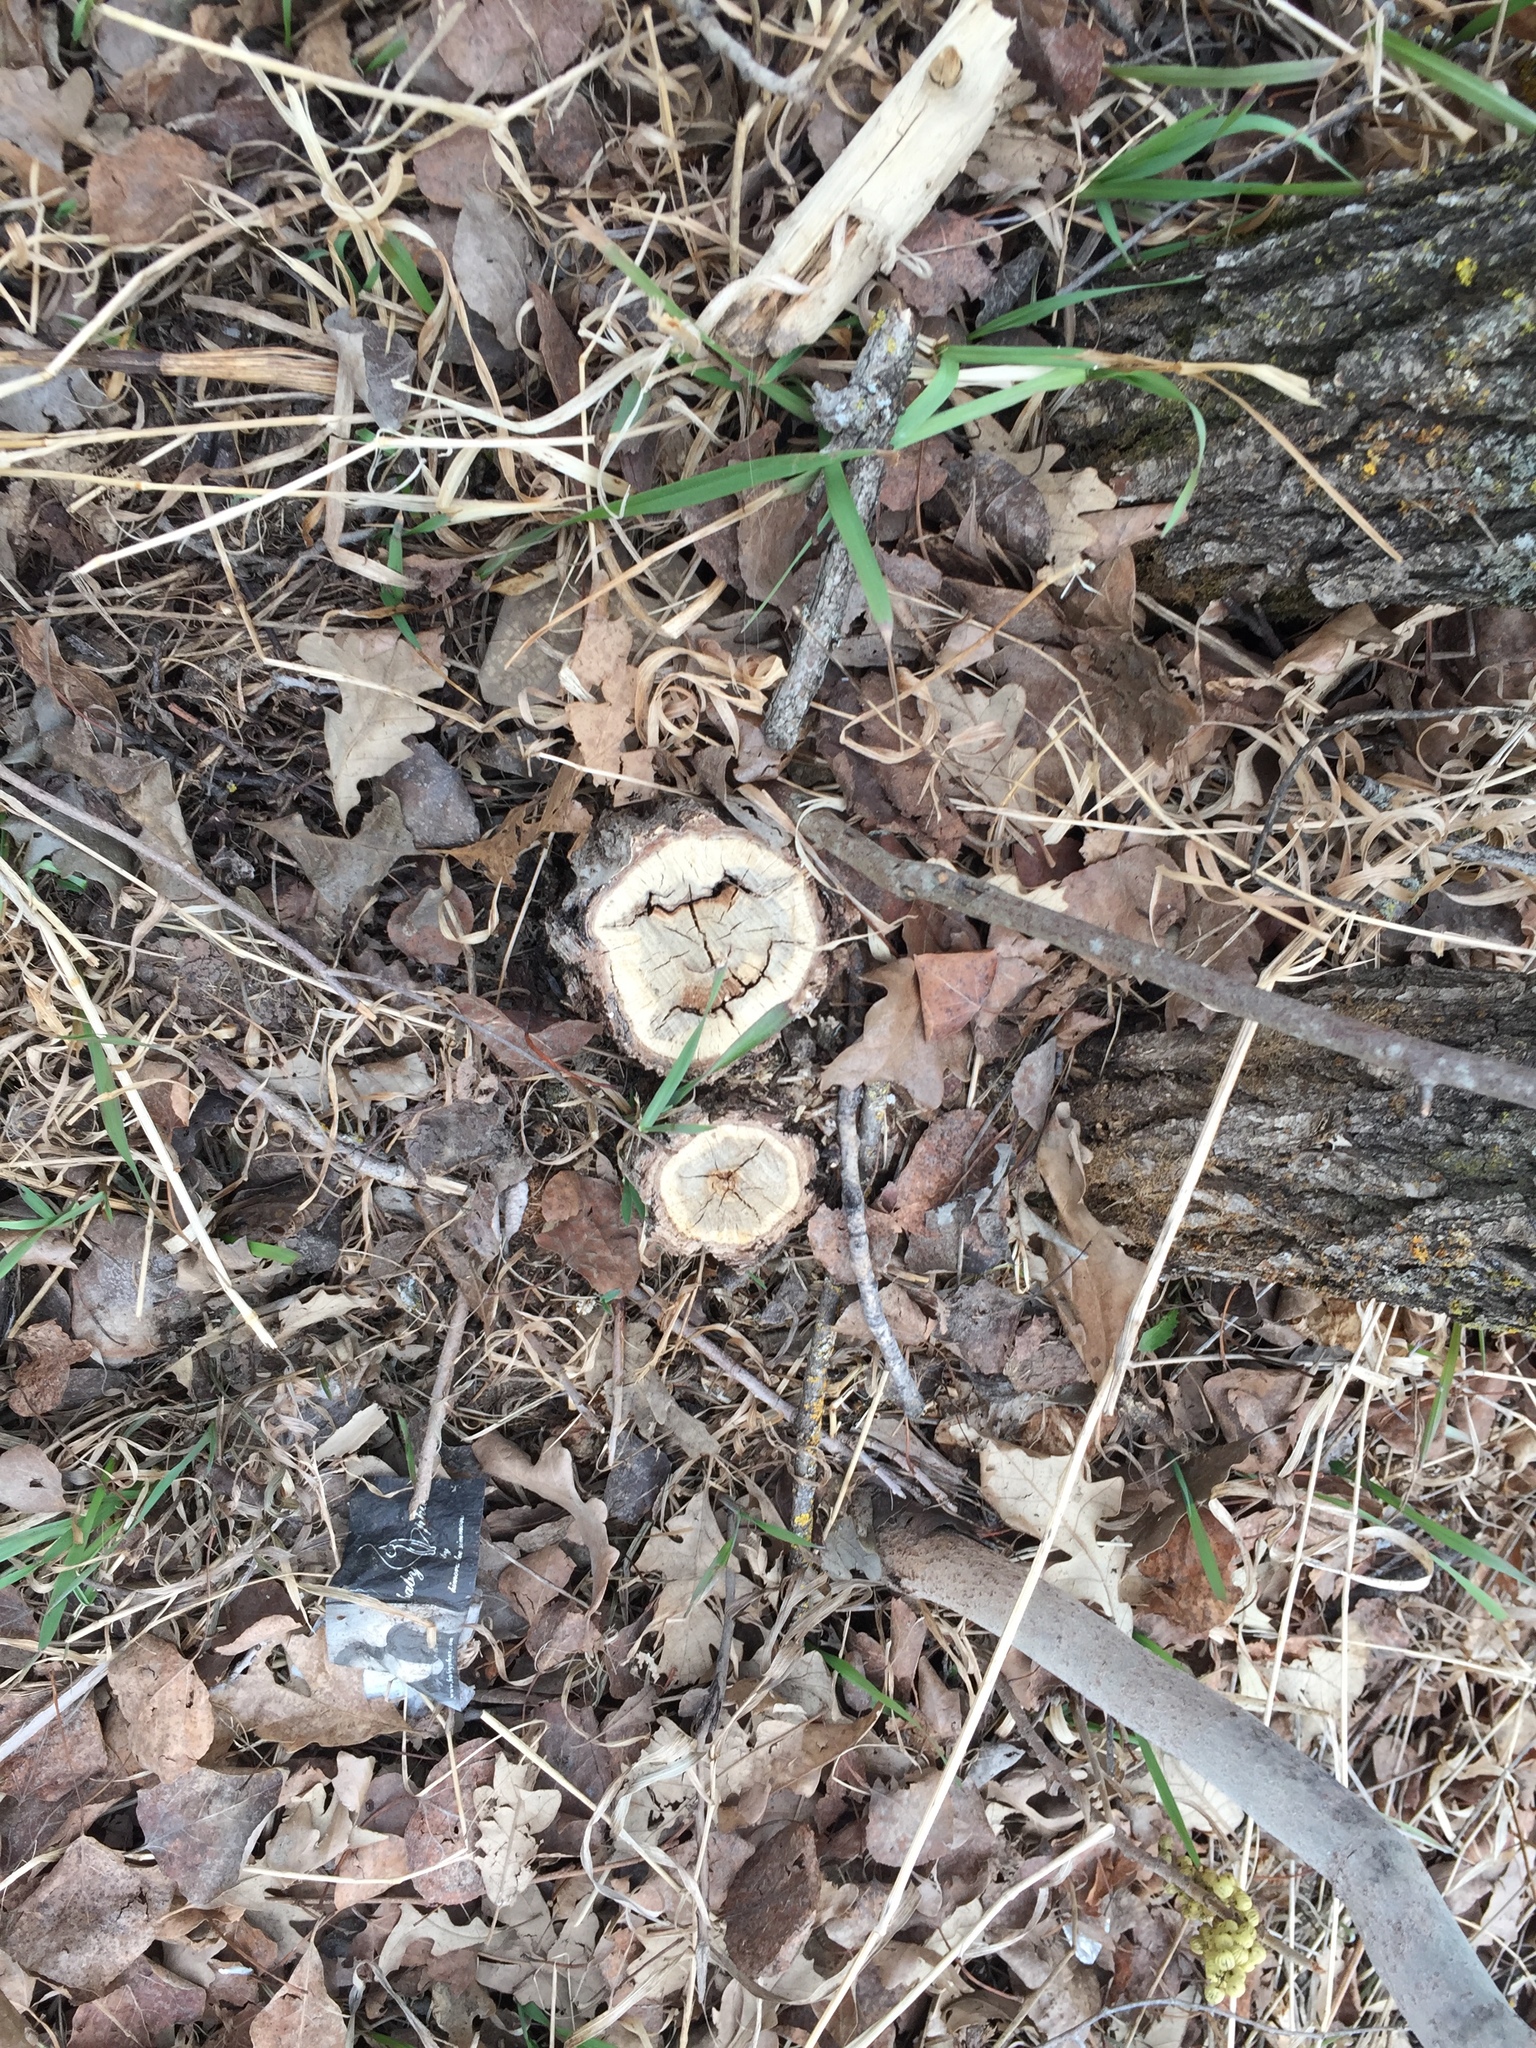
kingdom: Plantae
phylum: Tracheophyta
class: Magnoliopsida
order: Fagales
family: Fagaceae
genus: Quercus
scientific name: Quercus macrocarpa
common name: Bur oak
